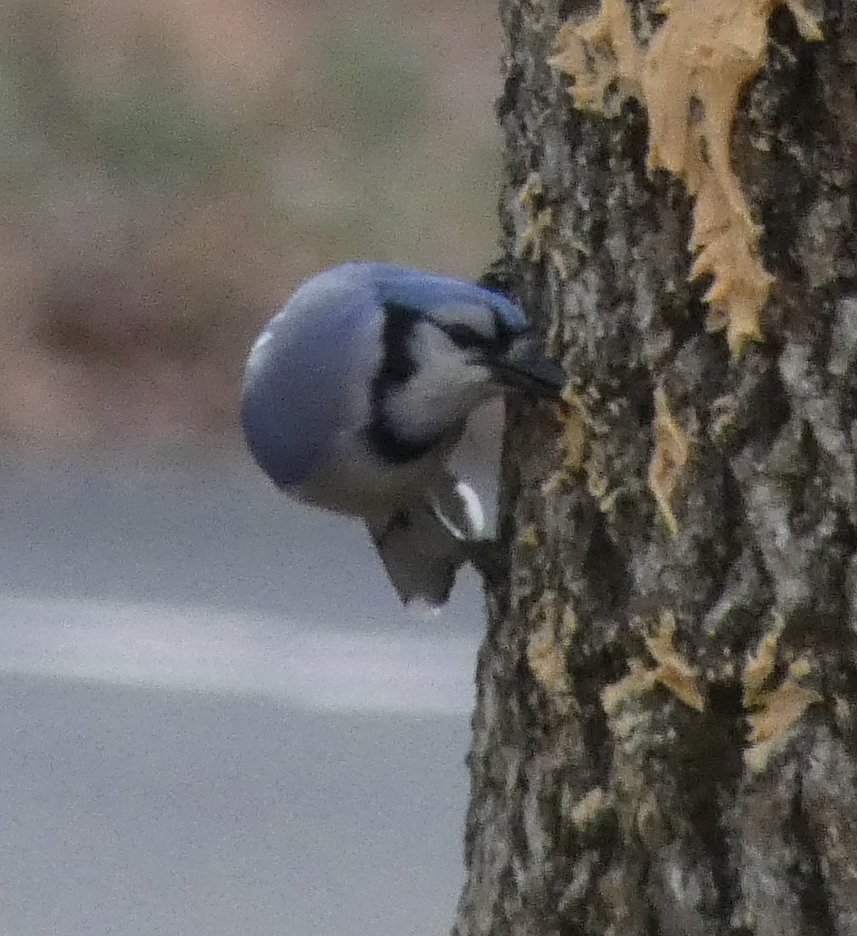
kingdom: Animalia
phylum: Chordata
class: Aves
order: Passeriformes
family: Corvidae
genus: Cyanocitta
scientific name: Cyanocitta cristata
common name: Blue jay
